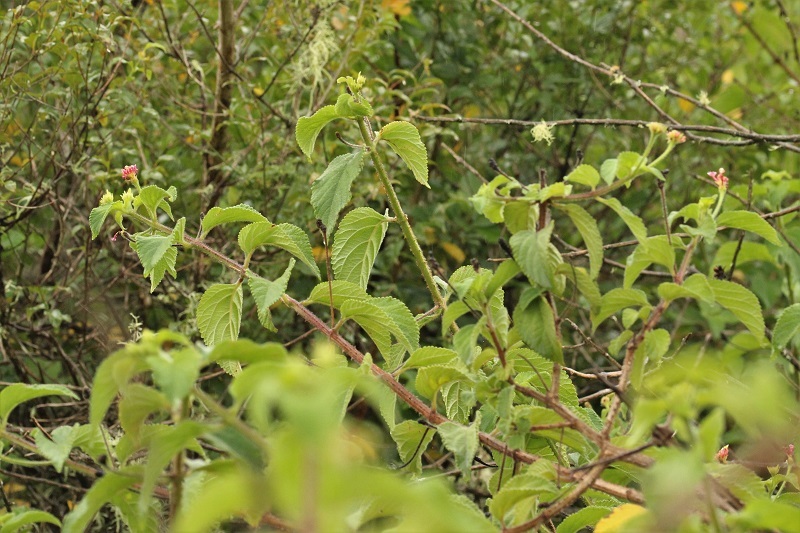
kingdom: Plantae
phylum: Tracheophyta
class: Magnoliopsida
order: Lamiales
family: Verbenaceae
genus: Lantana
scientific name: Lantana camara
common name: Lantana
